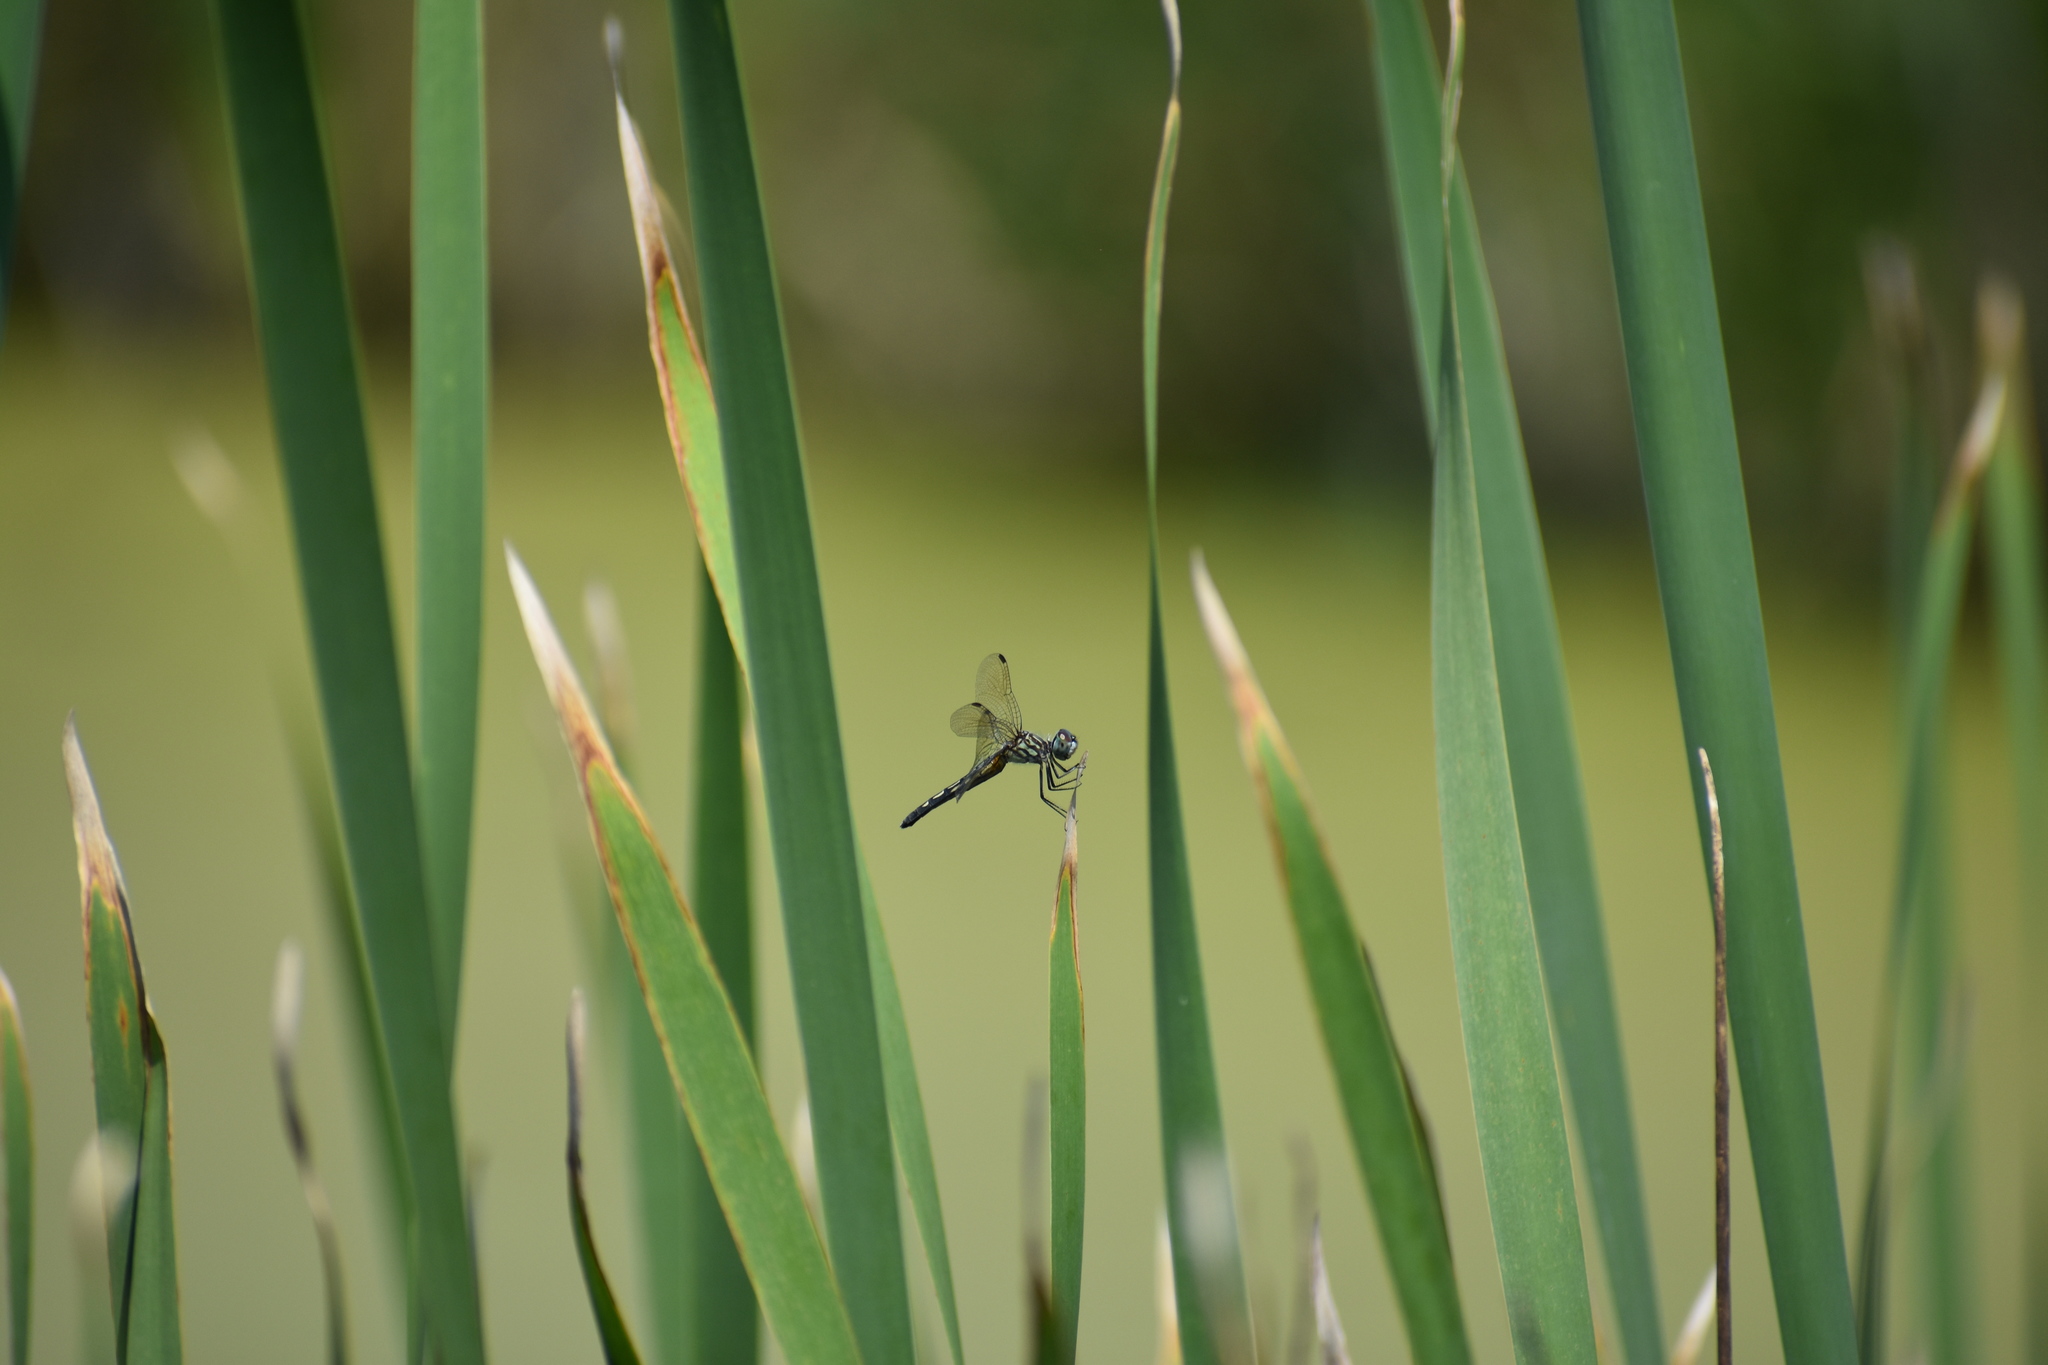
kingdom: Animalia
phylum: Arthropoda
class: Insecta
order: Odonata
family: Libellulidae
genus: Pachydiplax
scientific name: Pachydiplax longipennis
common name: Blue dasher
